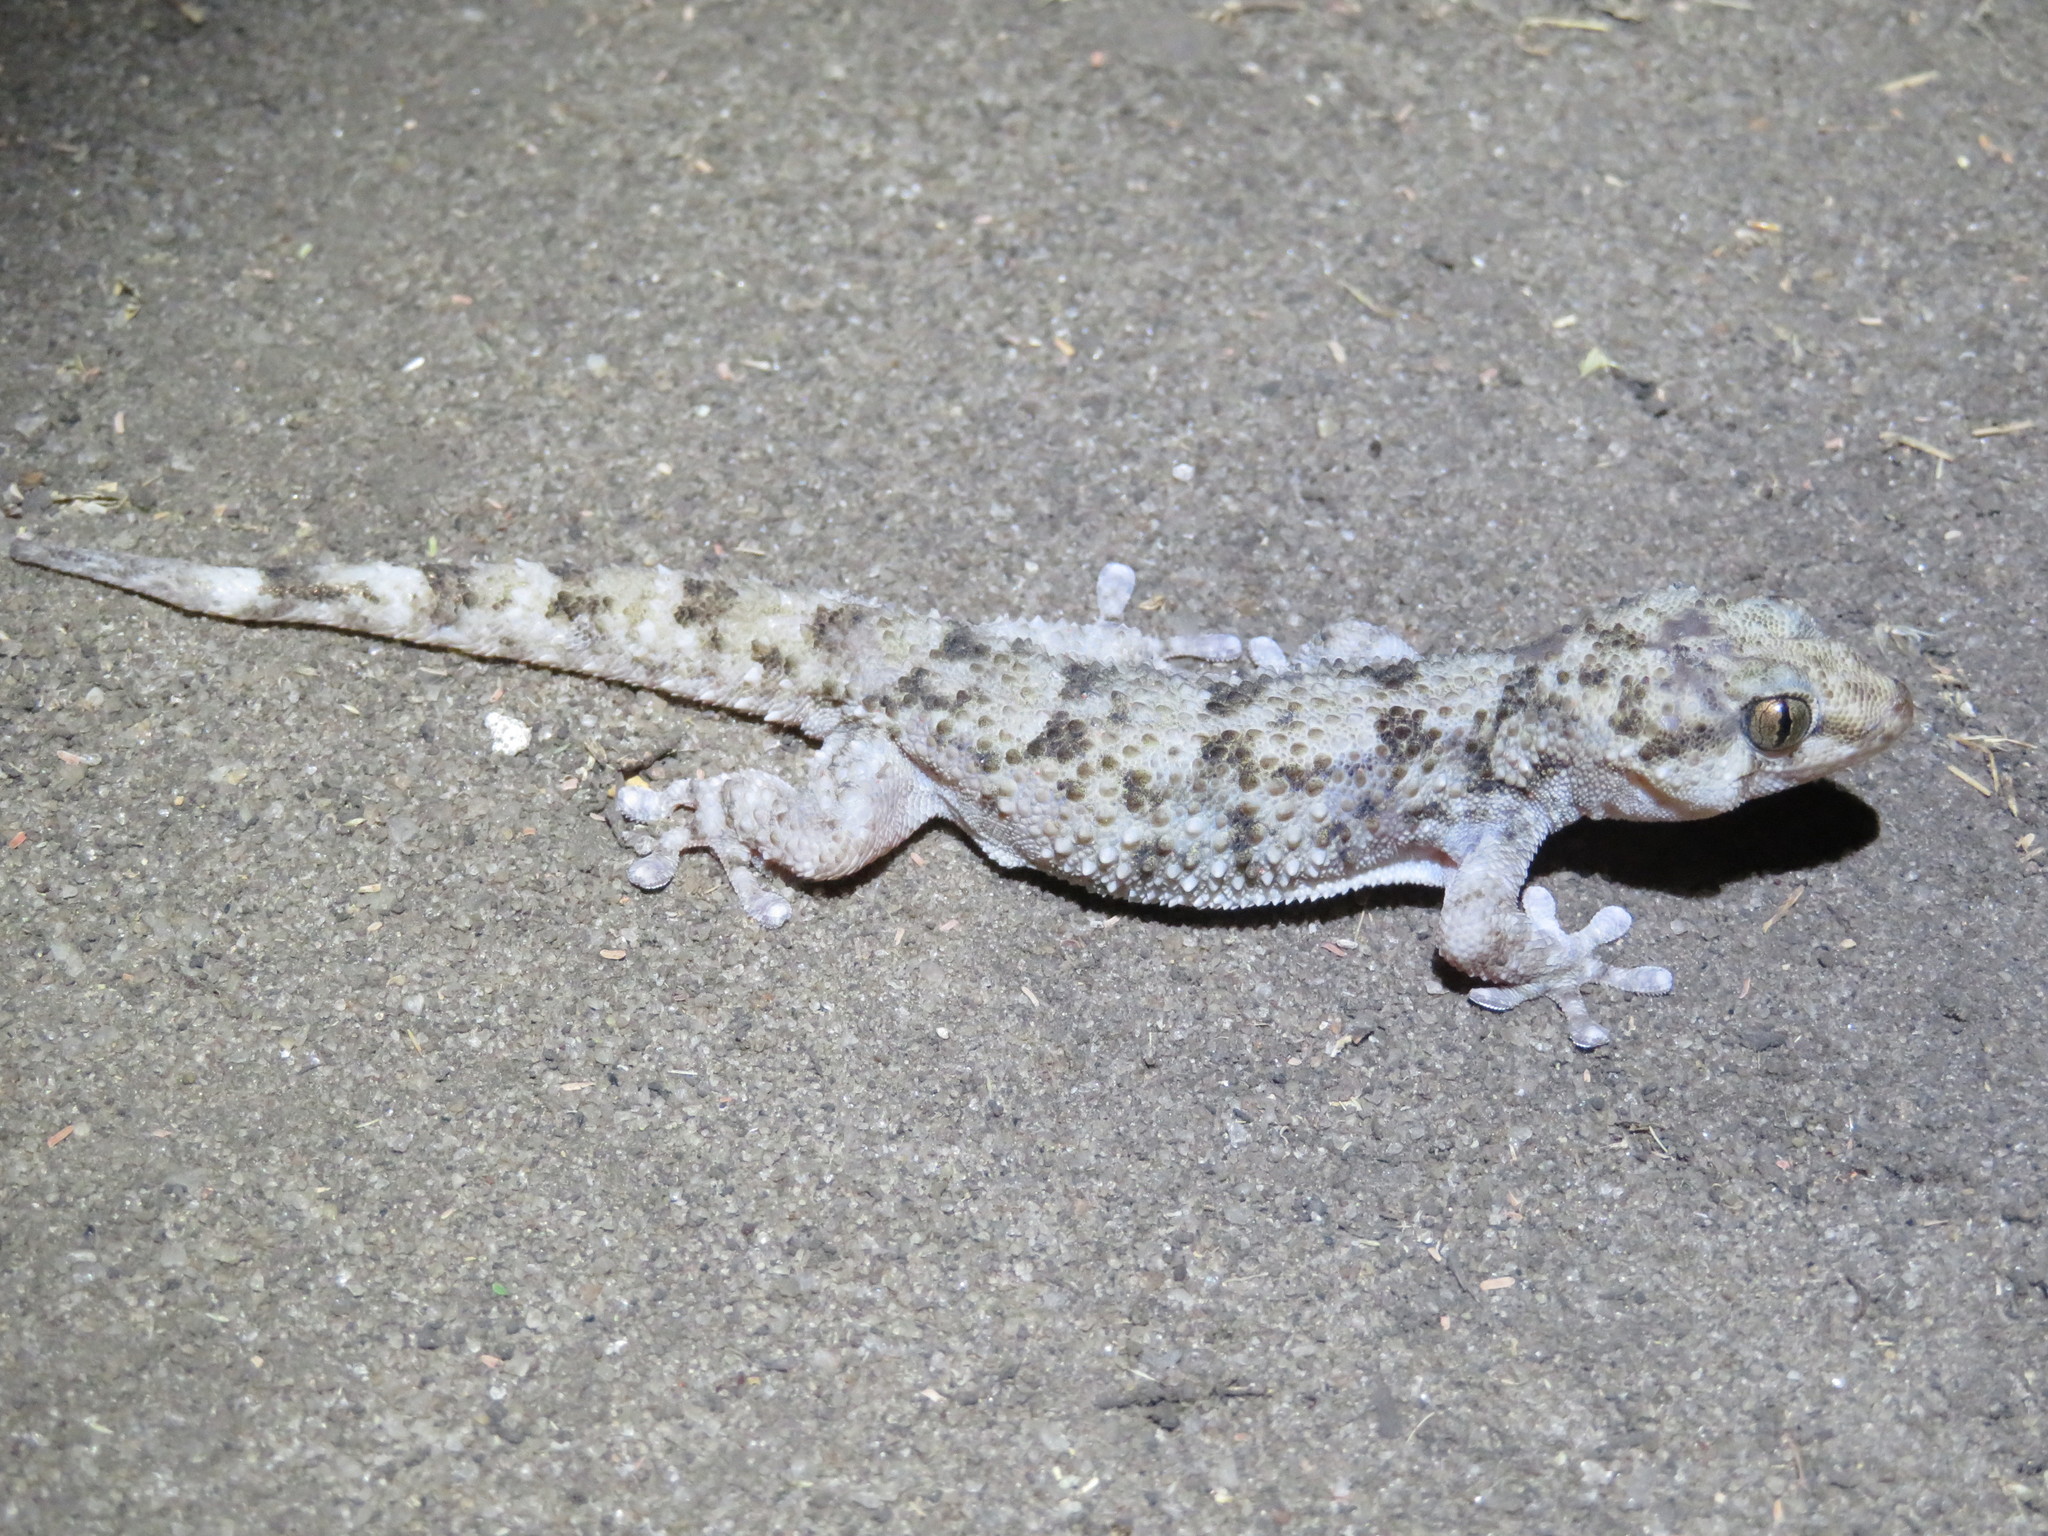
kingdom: Animalia
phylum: Chordata
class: Squamata
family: Gekkonidae
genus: Elasmodactylus
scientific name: Elasmodactylus tuberculosus
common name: Warty thick-toed gecko
